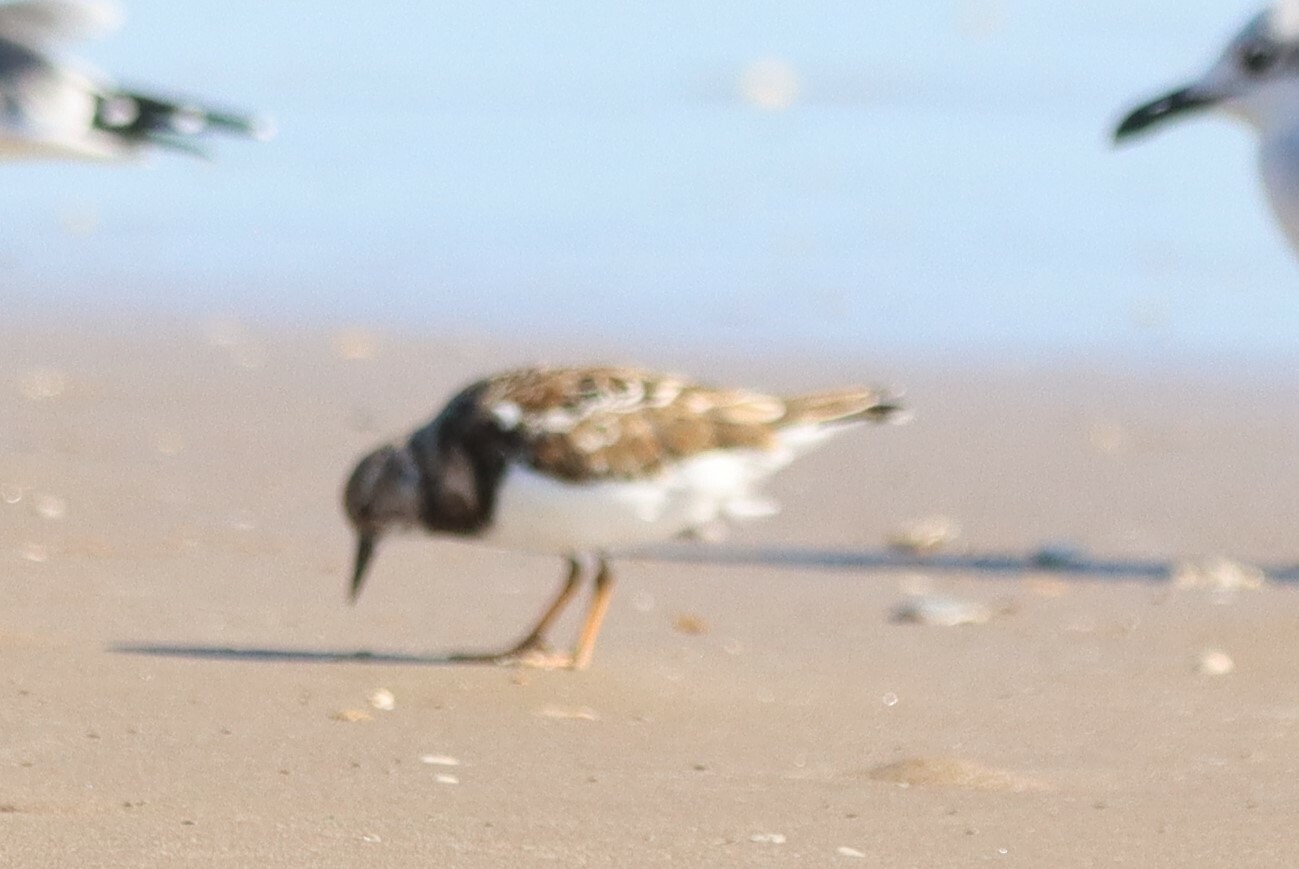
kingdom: Animalia
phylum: Chordata
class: Aves
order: Charadriiformes
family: Scolopacidae
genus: Arenaria
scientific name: Arenaria interpres
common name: Ruddy turnstone
